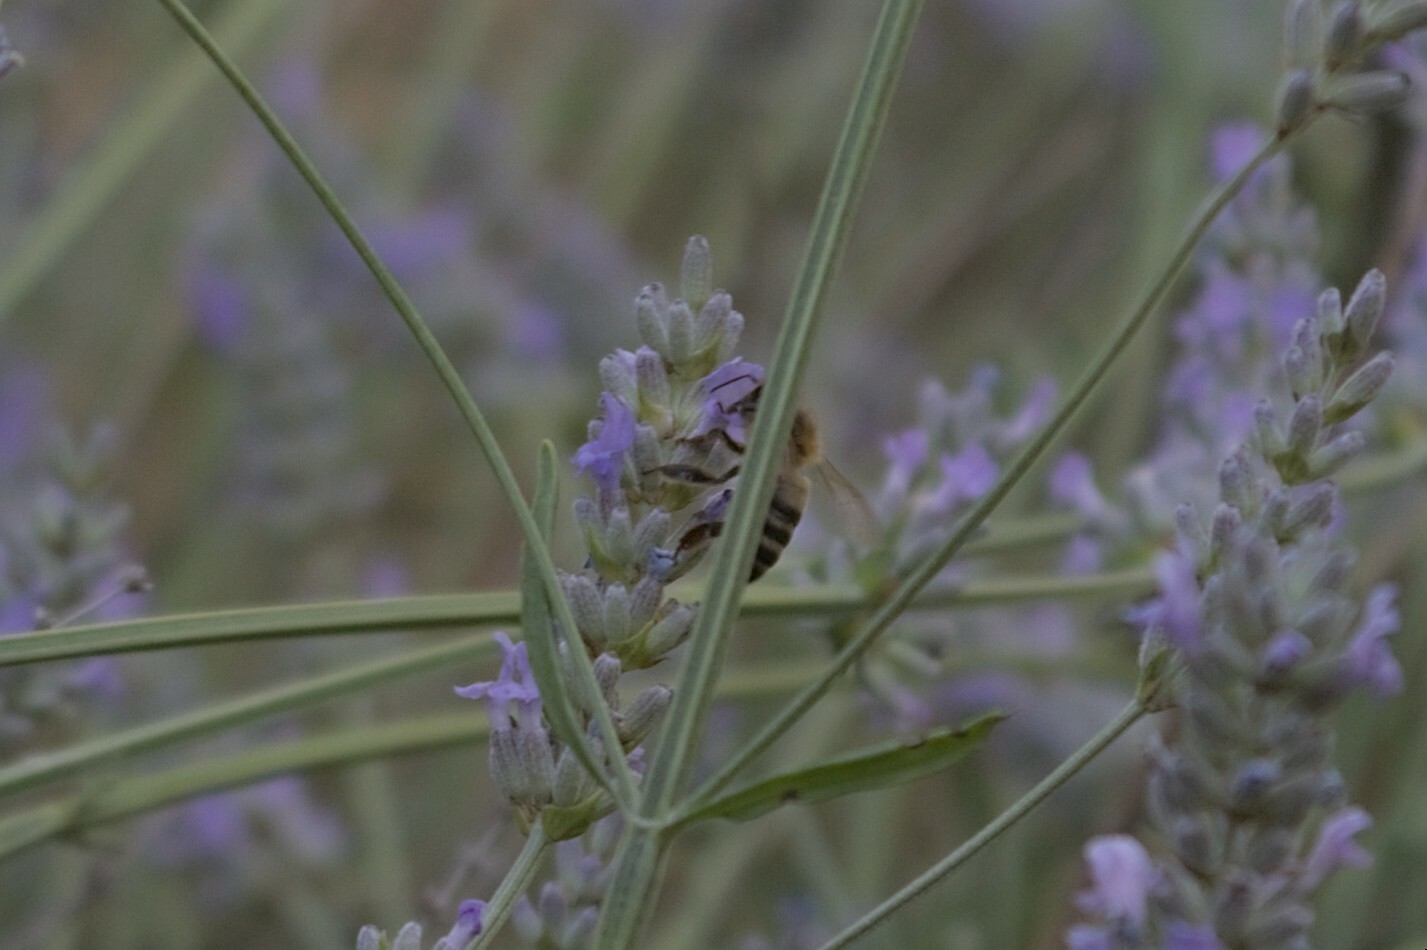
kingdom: Animalia
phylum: Arthropoda
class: Insecta
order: Hymenoptera
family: Apidae
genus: Apis
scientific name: Apis mellifera
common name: Honey bee
